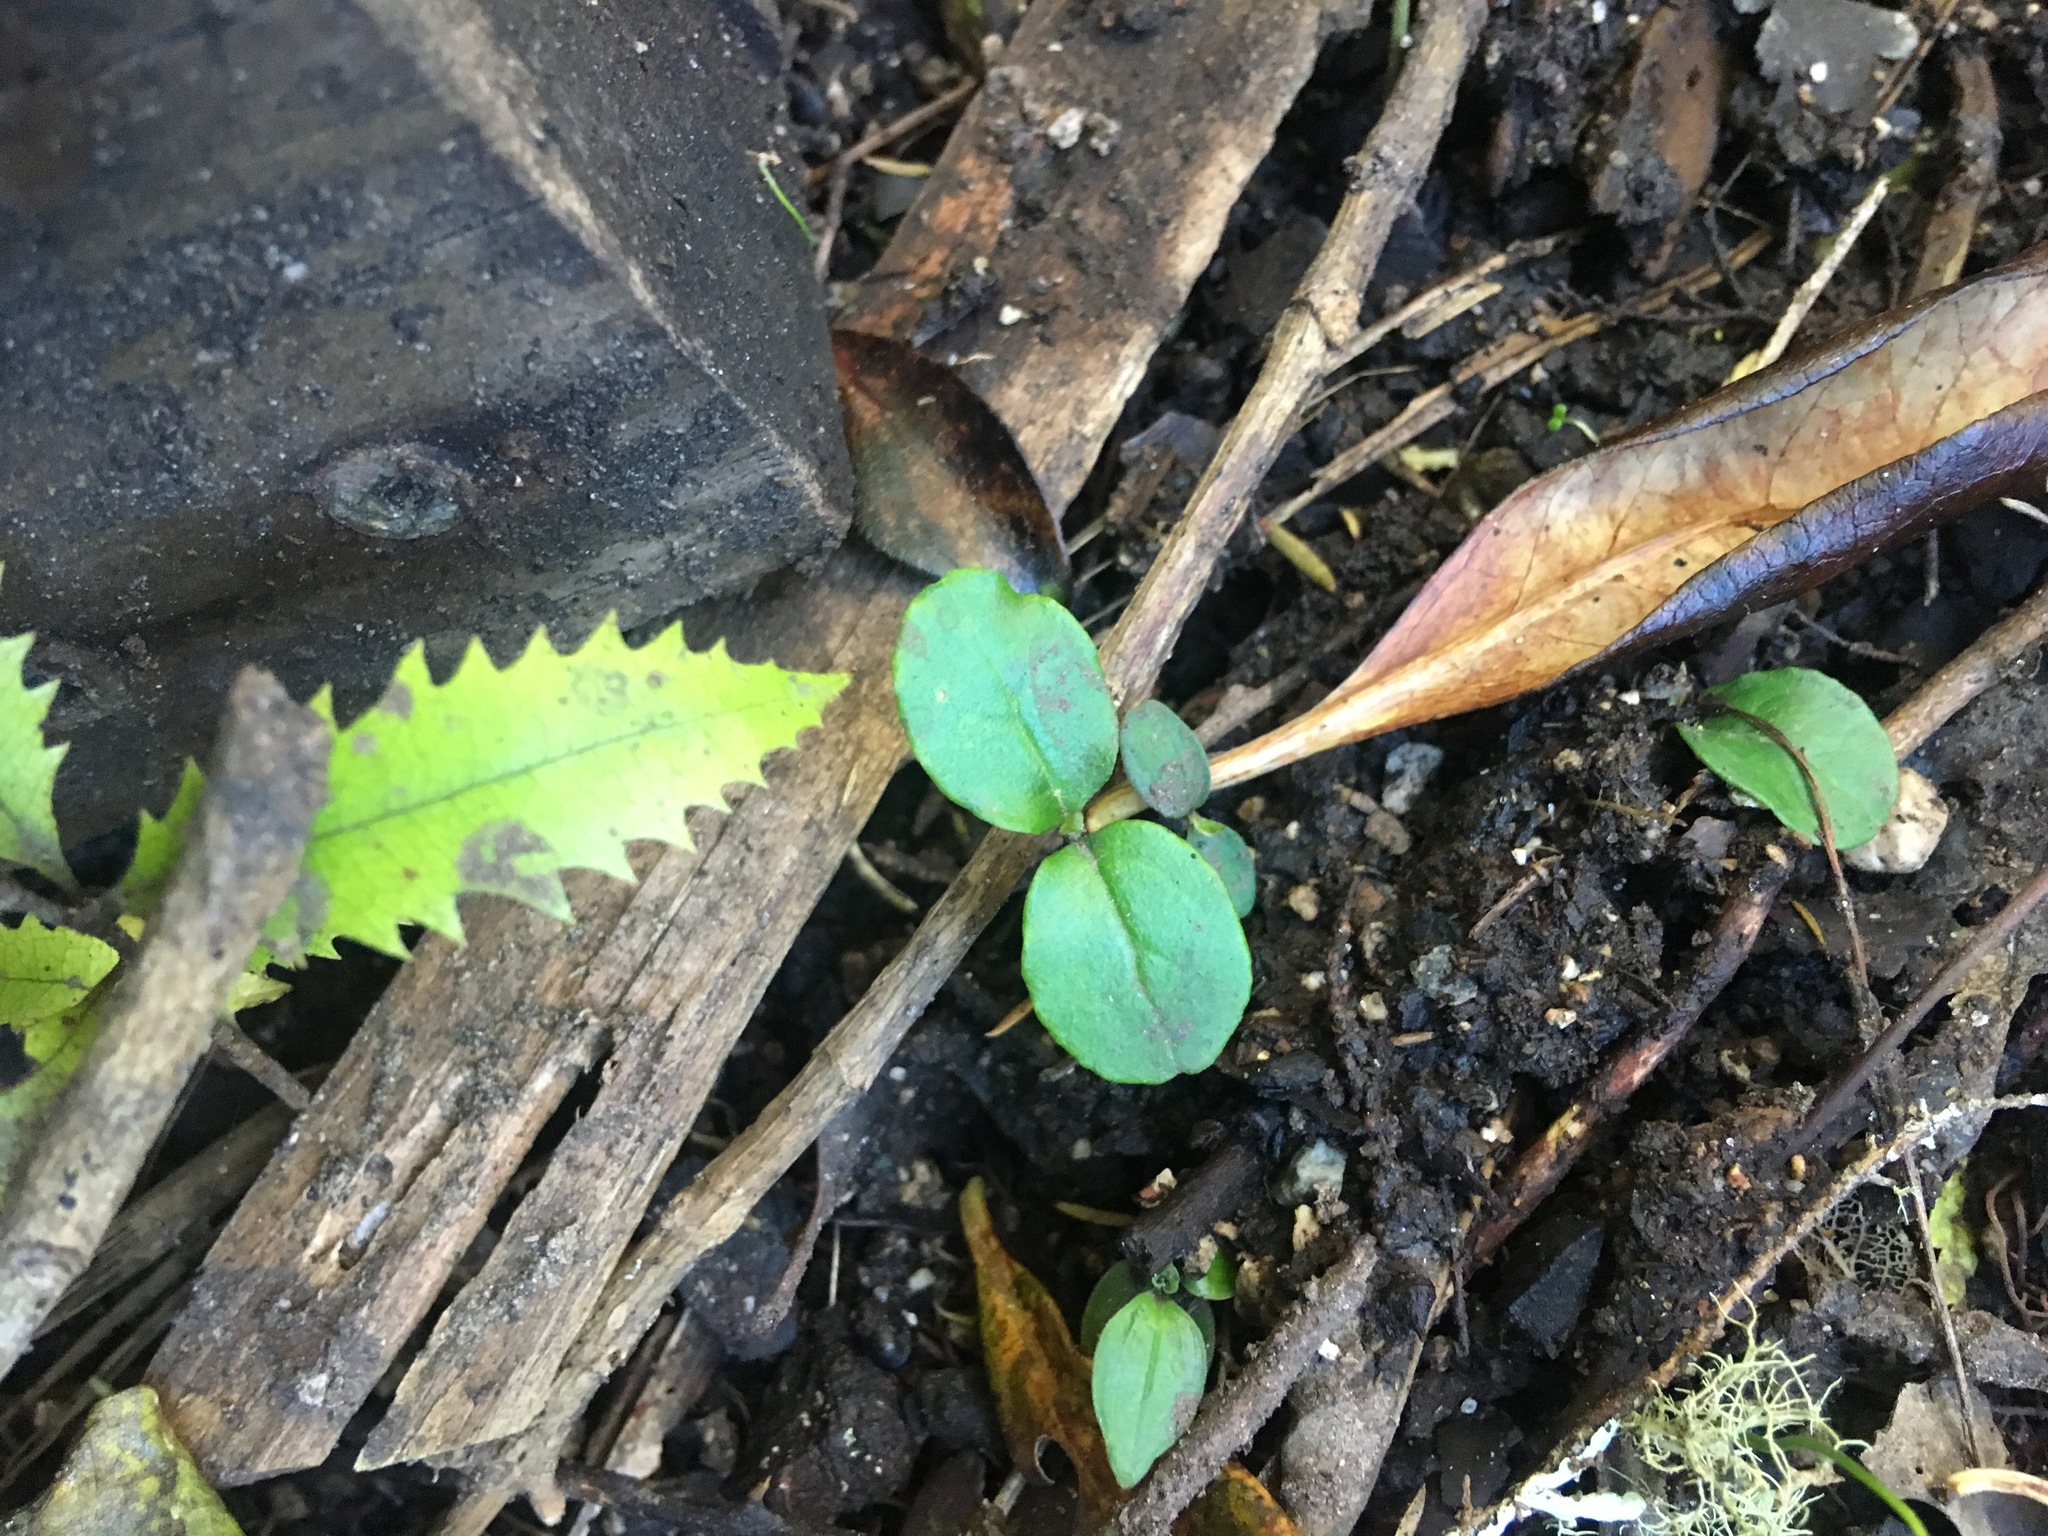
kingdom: Plantae
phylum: Tracheophyta
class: Magnoliopsida
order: Lamiales
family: Oleaceae
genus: Ligustrum
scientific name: Ligustrum sinense
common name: Chinese privet
